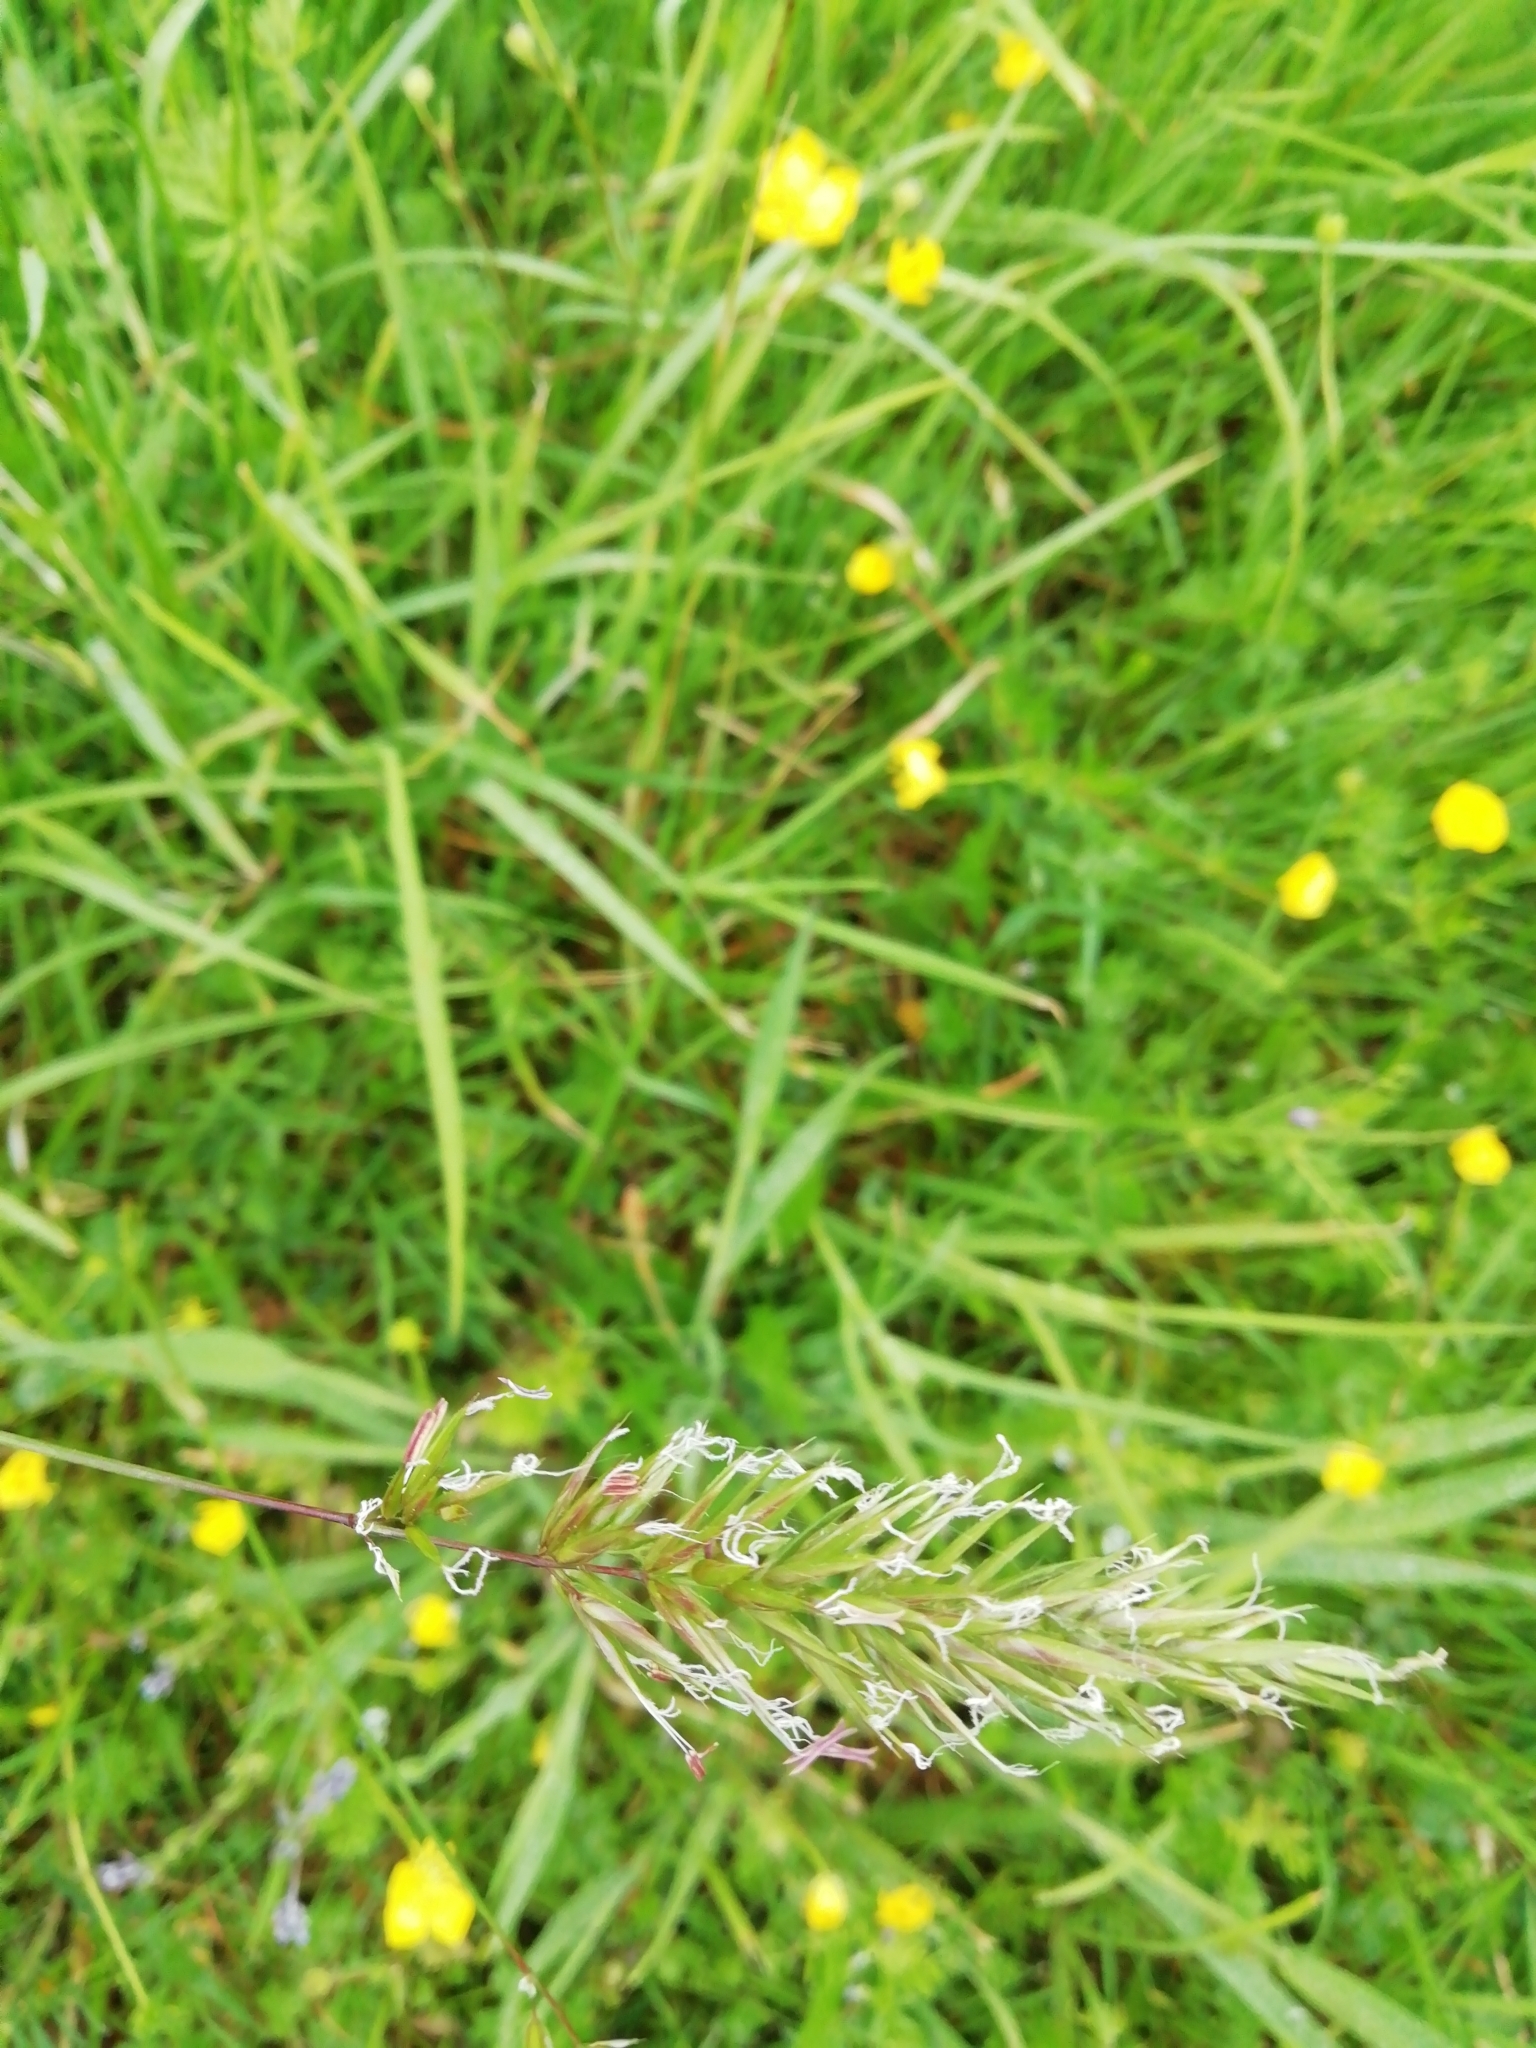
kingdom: Plantae
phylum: Tracheophyta
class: Liliopsida
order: Poales
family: Poaceae
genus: Anthoxanthum
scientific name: Anthoxanthum odoratum
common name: Sweet vernalgrass
